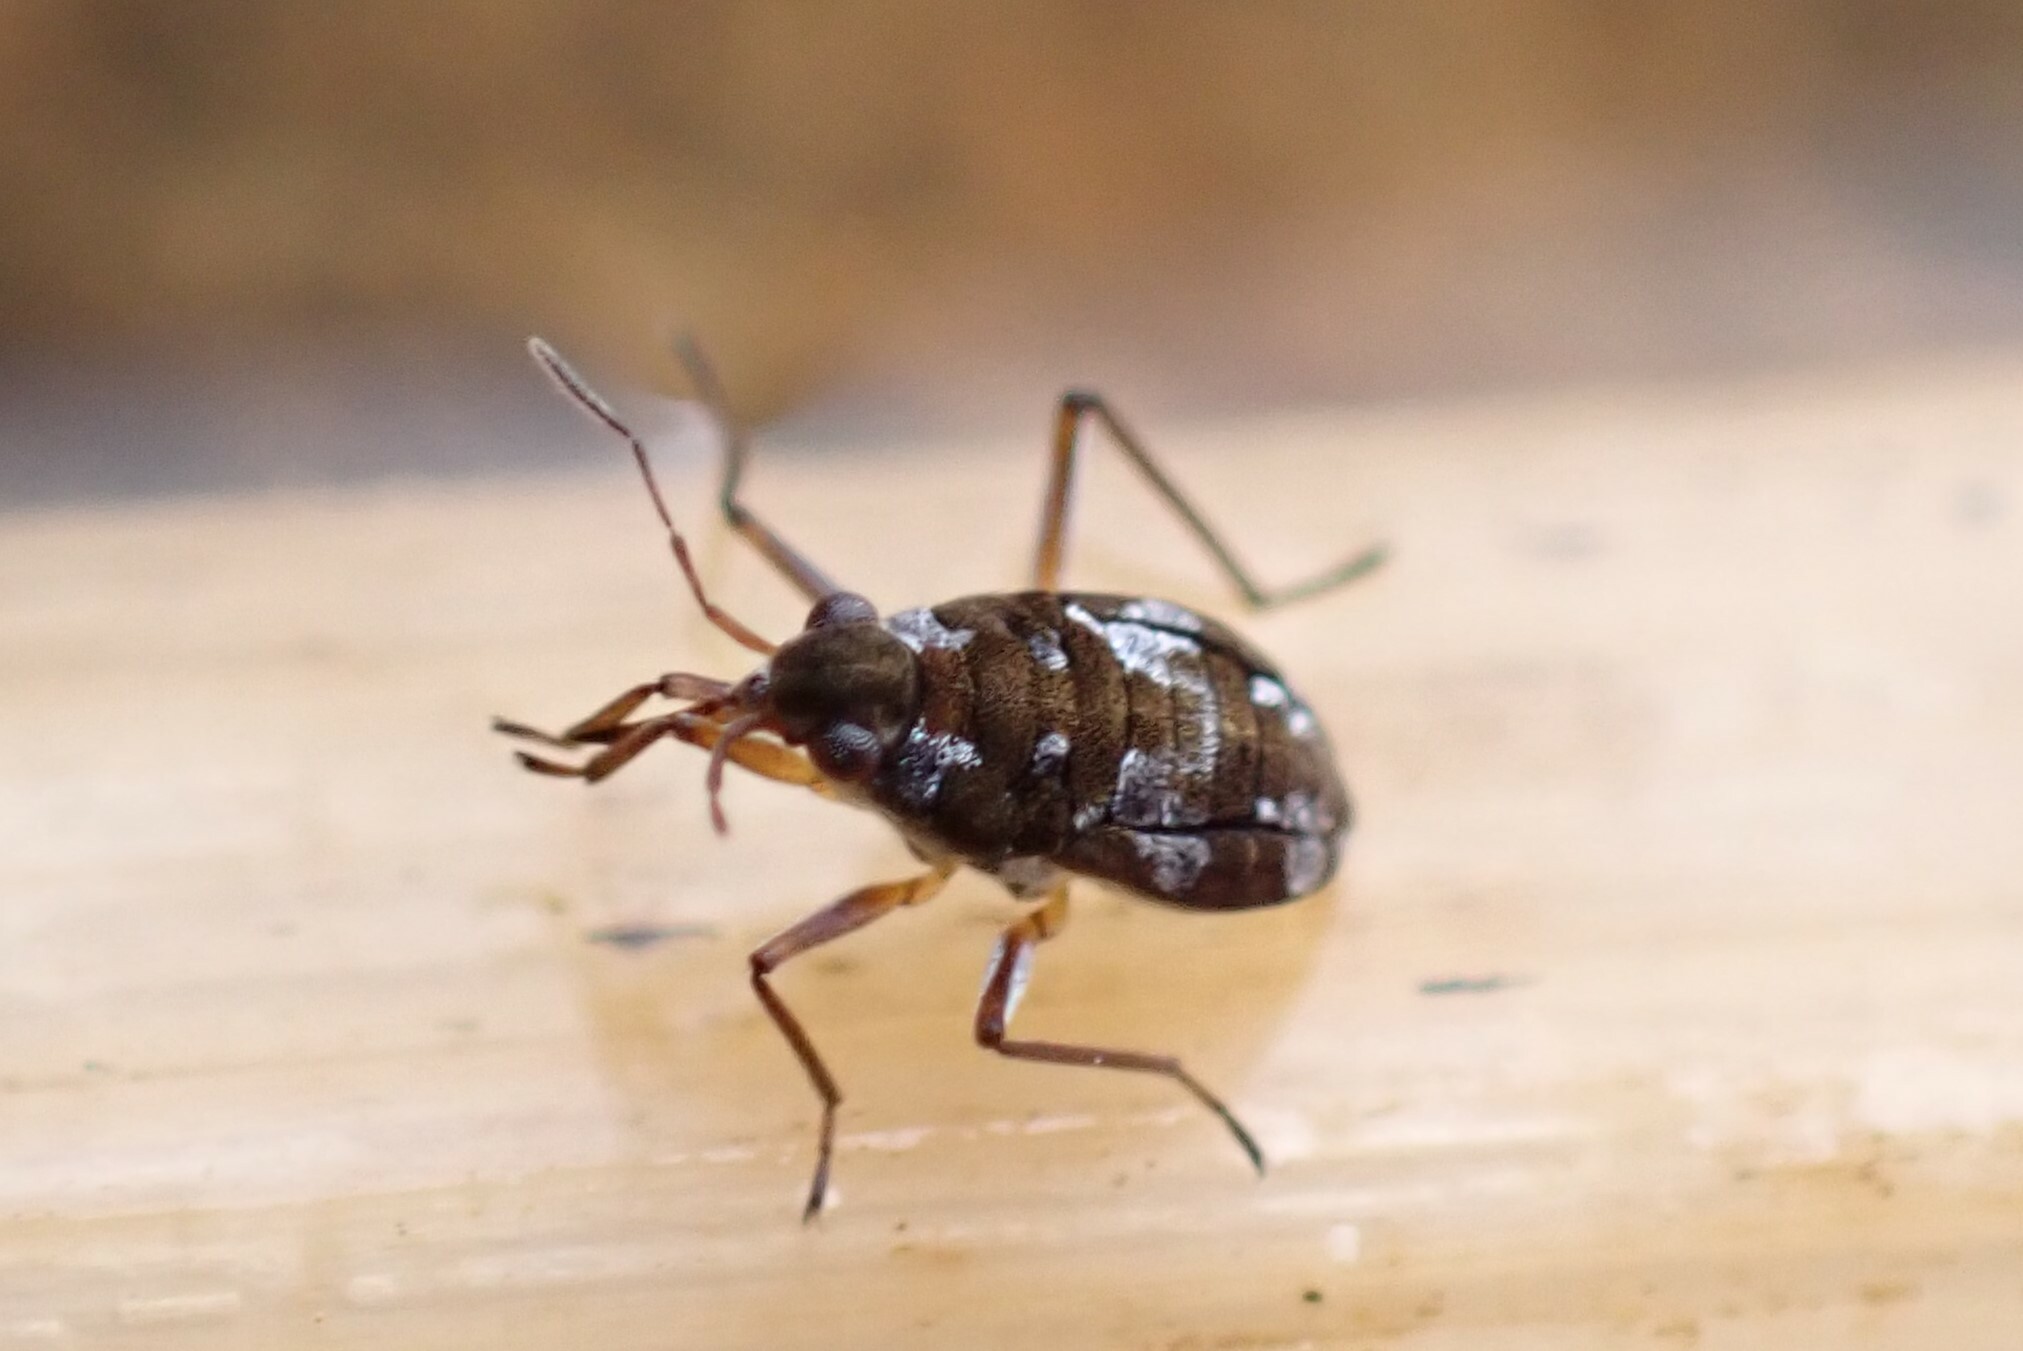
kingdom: Animalia
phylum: Arthropoda
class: Insecta
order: Hemiptera
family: Veliidae
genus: Microvelia
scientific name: Microvelia americana
